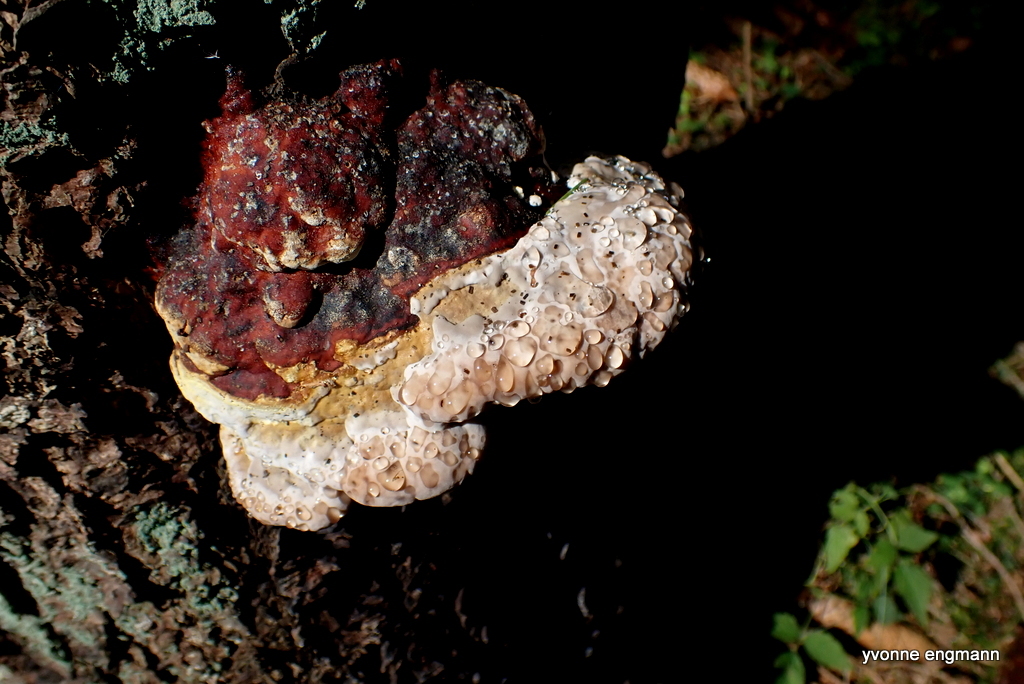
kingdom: Fungi
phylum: Basidiomycota
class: Agaricomycetes
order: Polyporales
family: Fomitopsidaceae
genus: Fomitopsis
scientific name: Fomitopsis pinicola
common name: Red-belted bracket
